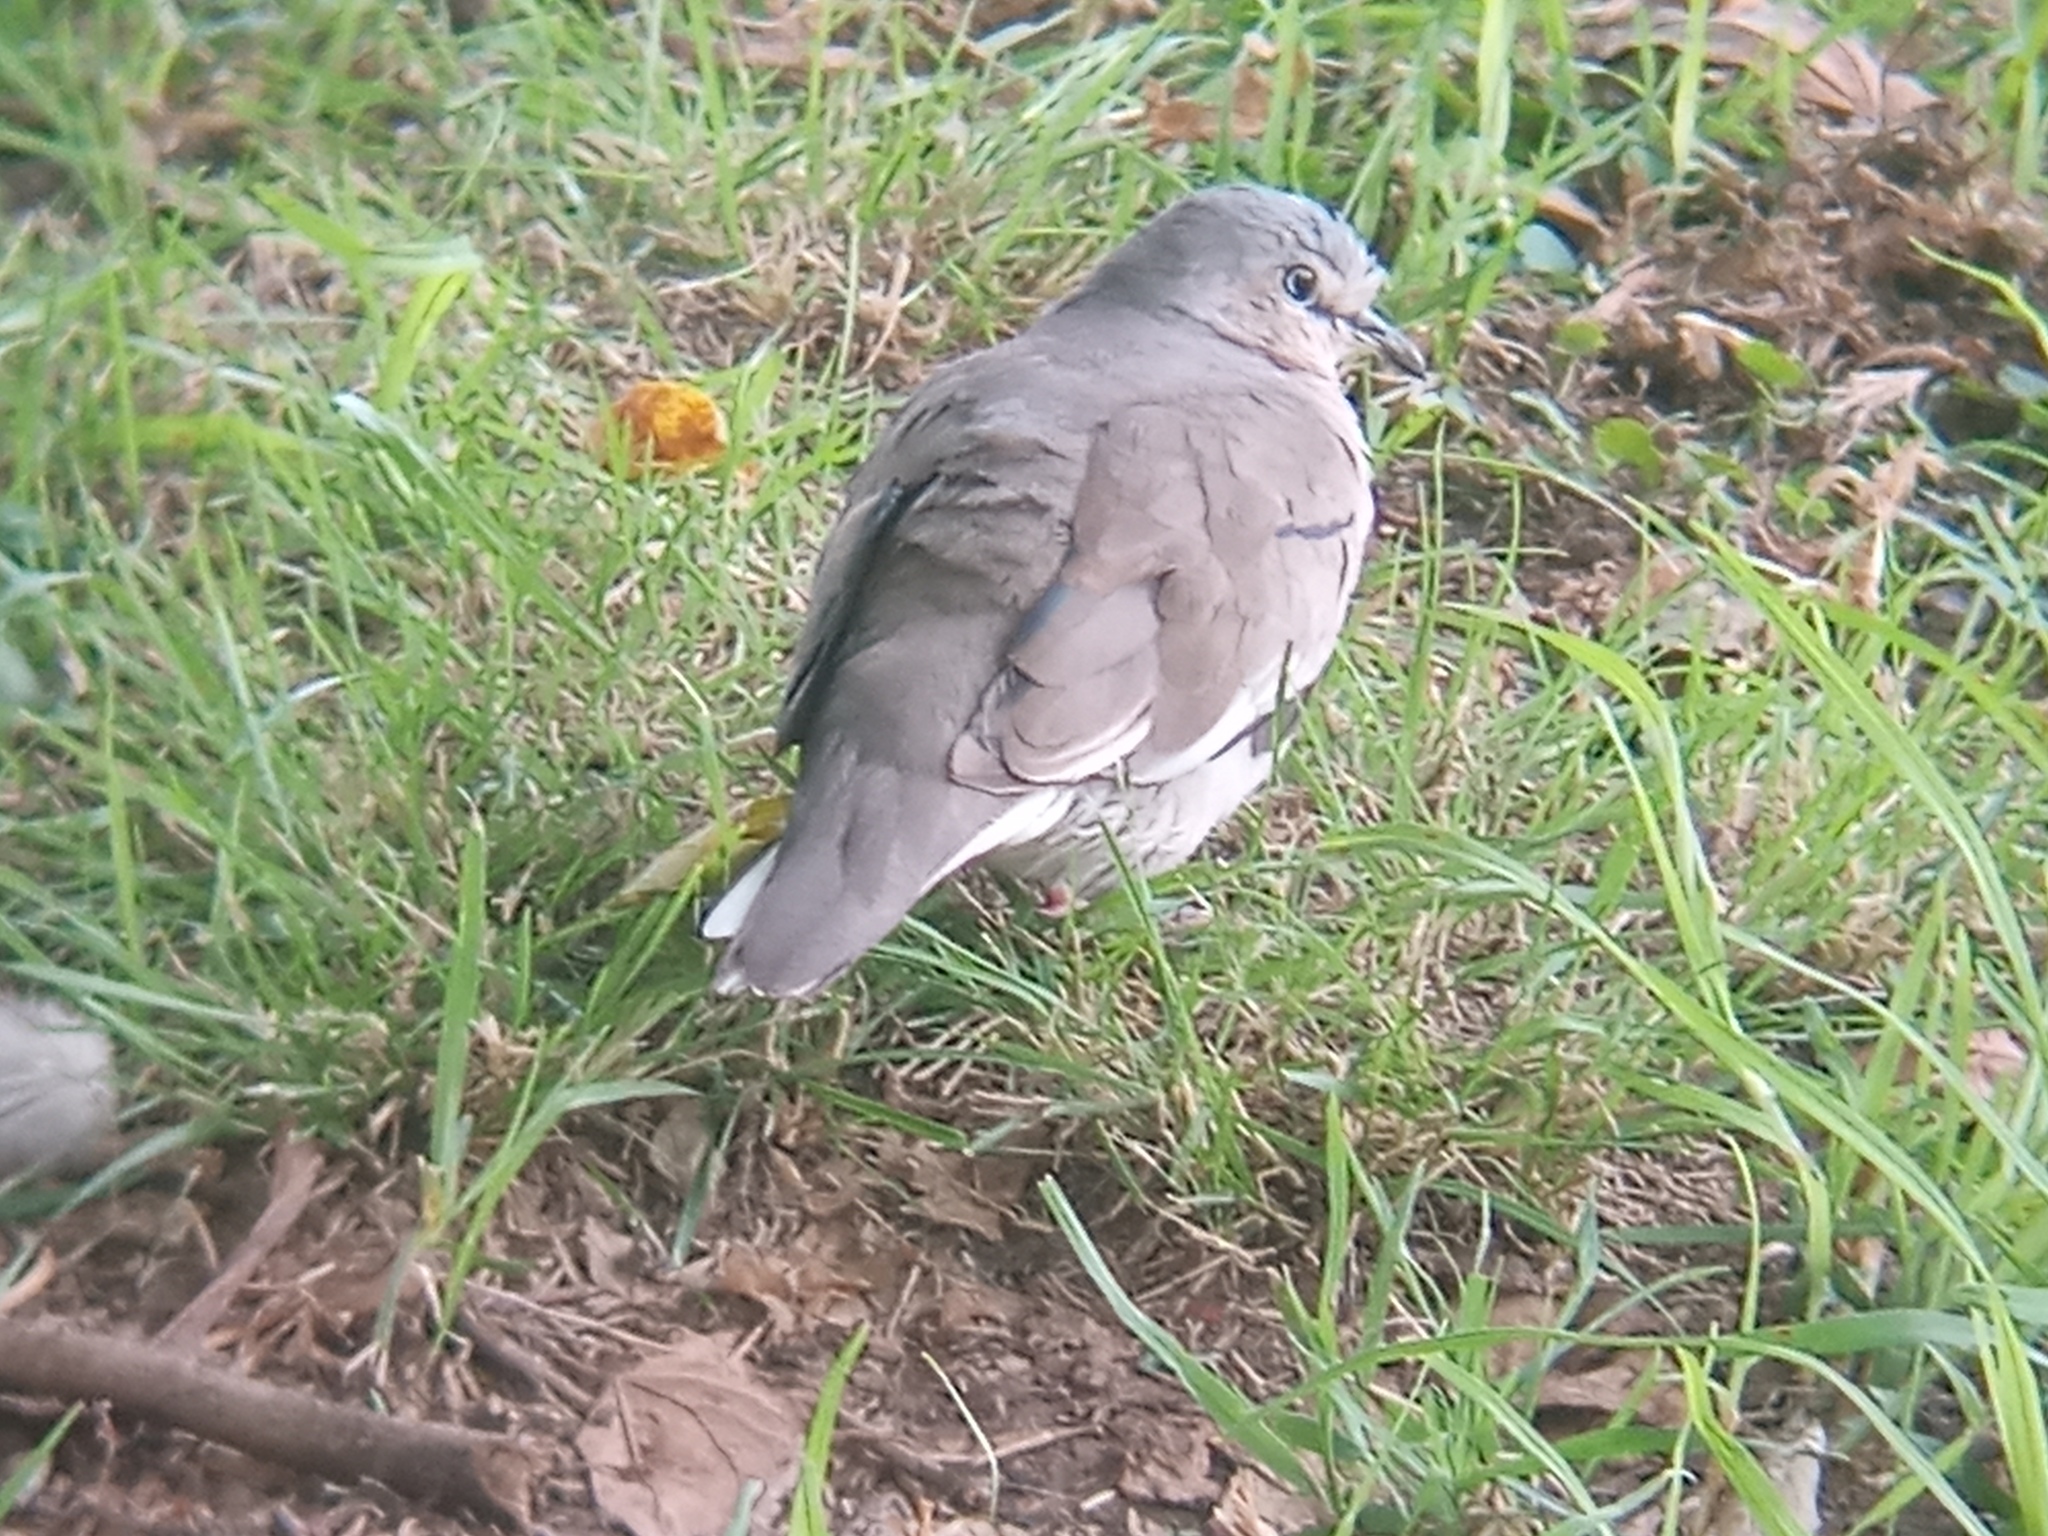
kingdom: Animalia
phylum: Chordata
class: Aves
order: Columbiformes
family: Columbidae
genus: Columbina
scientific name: Columbina picui
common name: Picui ground dove
